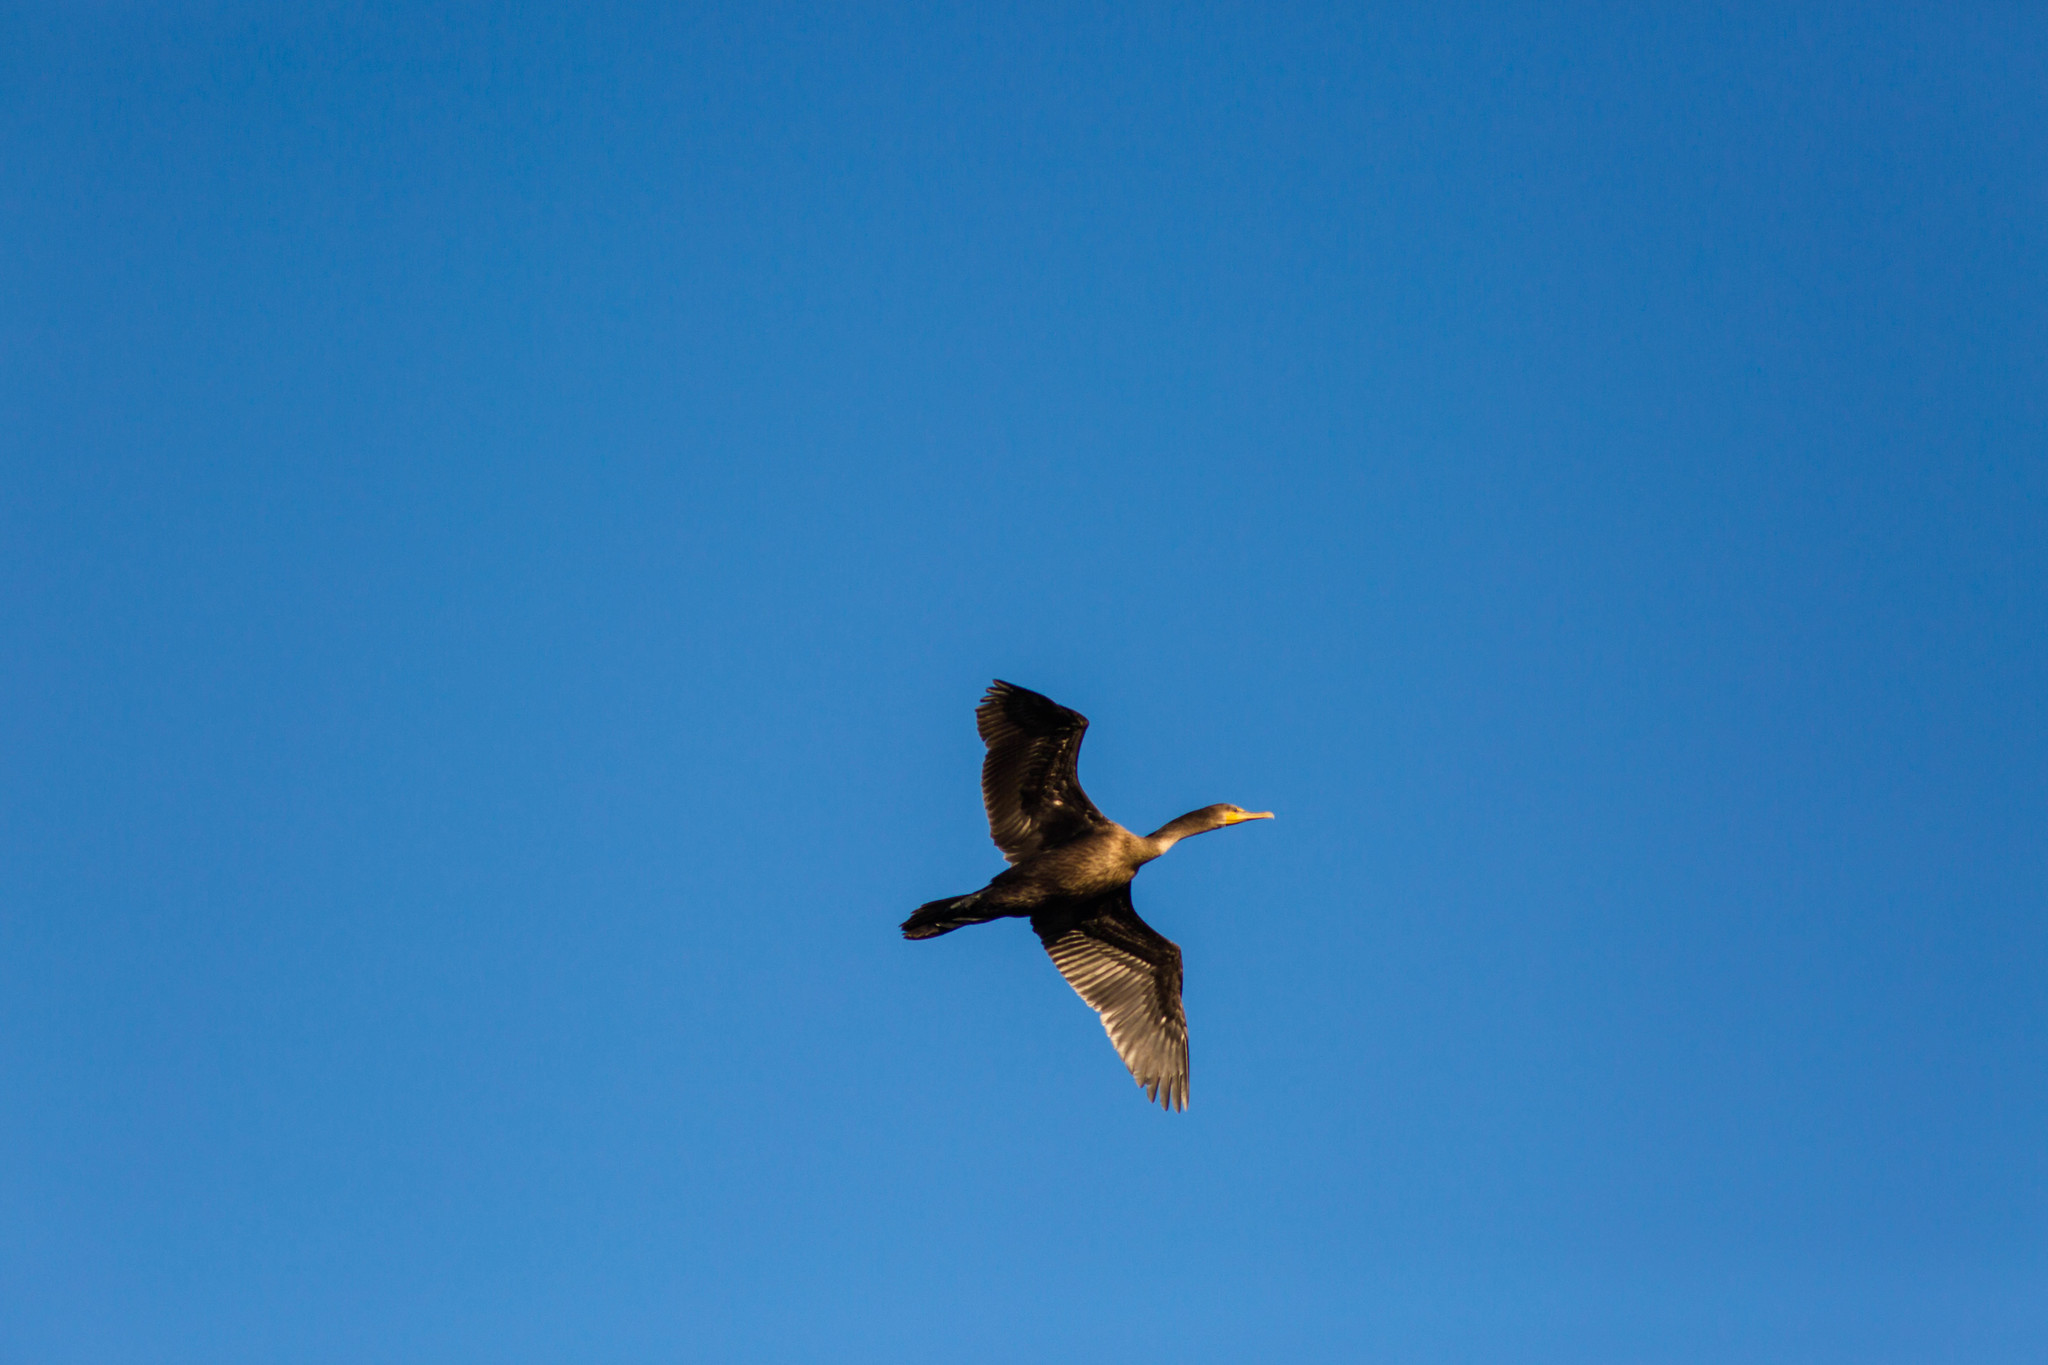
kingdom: Animalia
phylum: Chordata
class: Aves
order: Suliformes
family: Phalacrocoracidae
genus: Phalacrocorax
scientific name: Phalacrocorax auritus
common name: Double-crested cormorant
